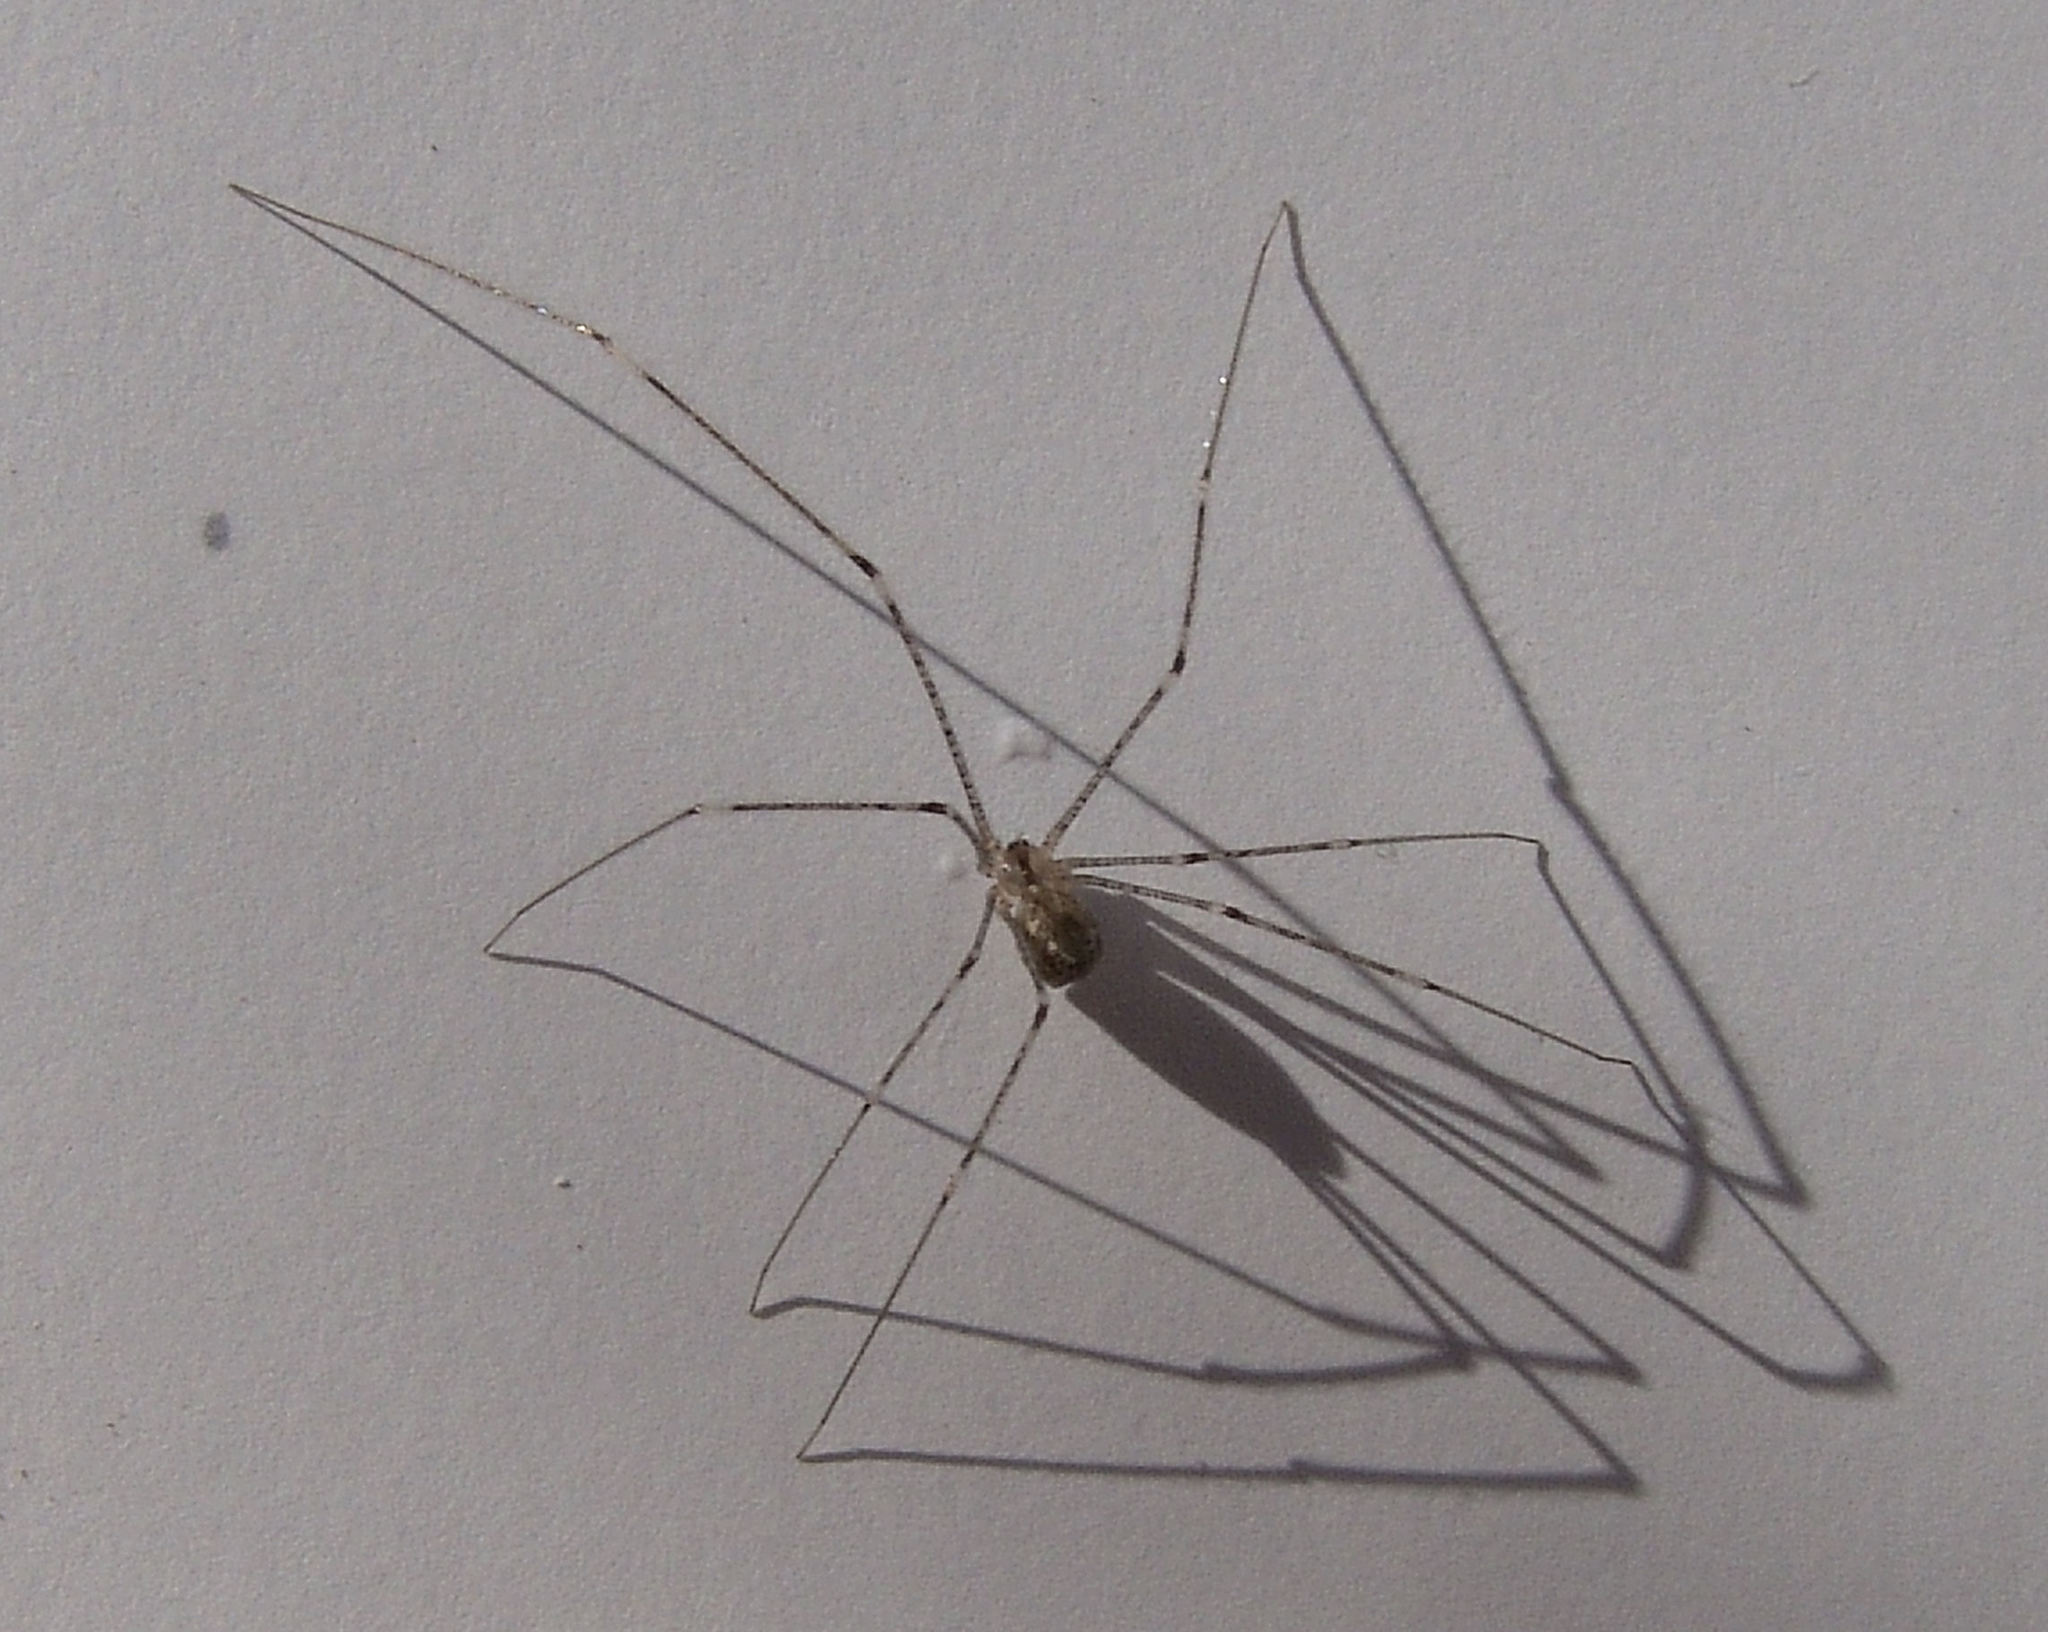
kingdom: Animalia
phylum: Arthropoda
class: Arachnida
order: Araneae
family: Pholcidae
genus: Crossopriza
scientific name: Crossopriza lyoni
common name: Cellar spiders
